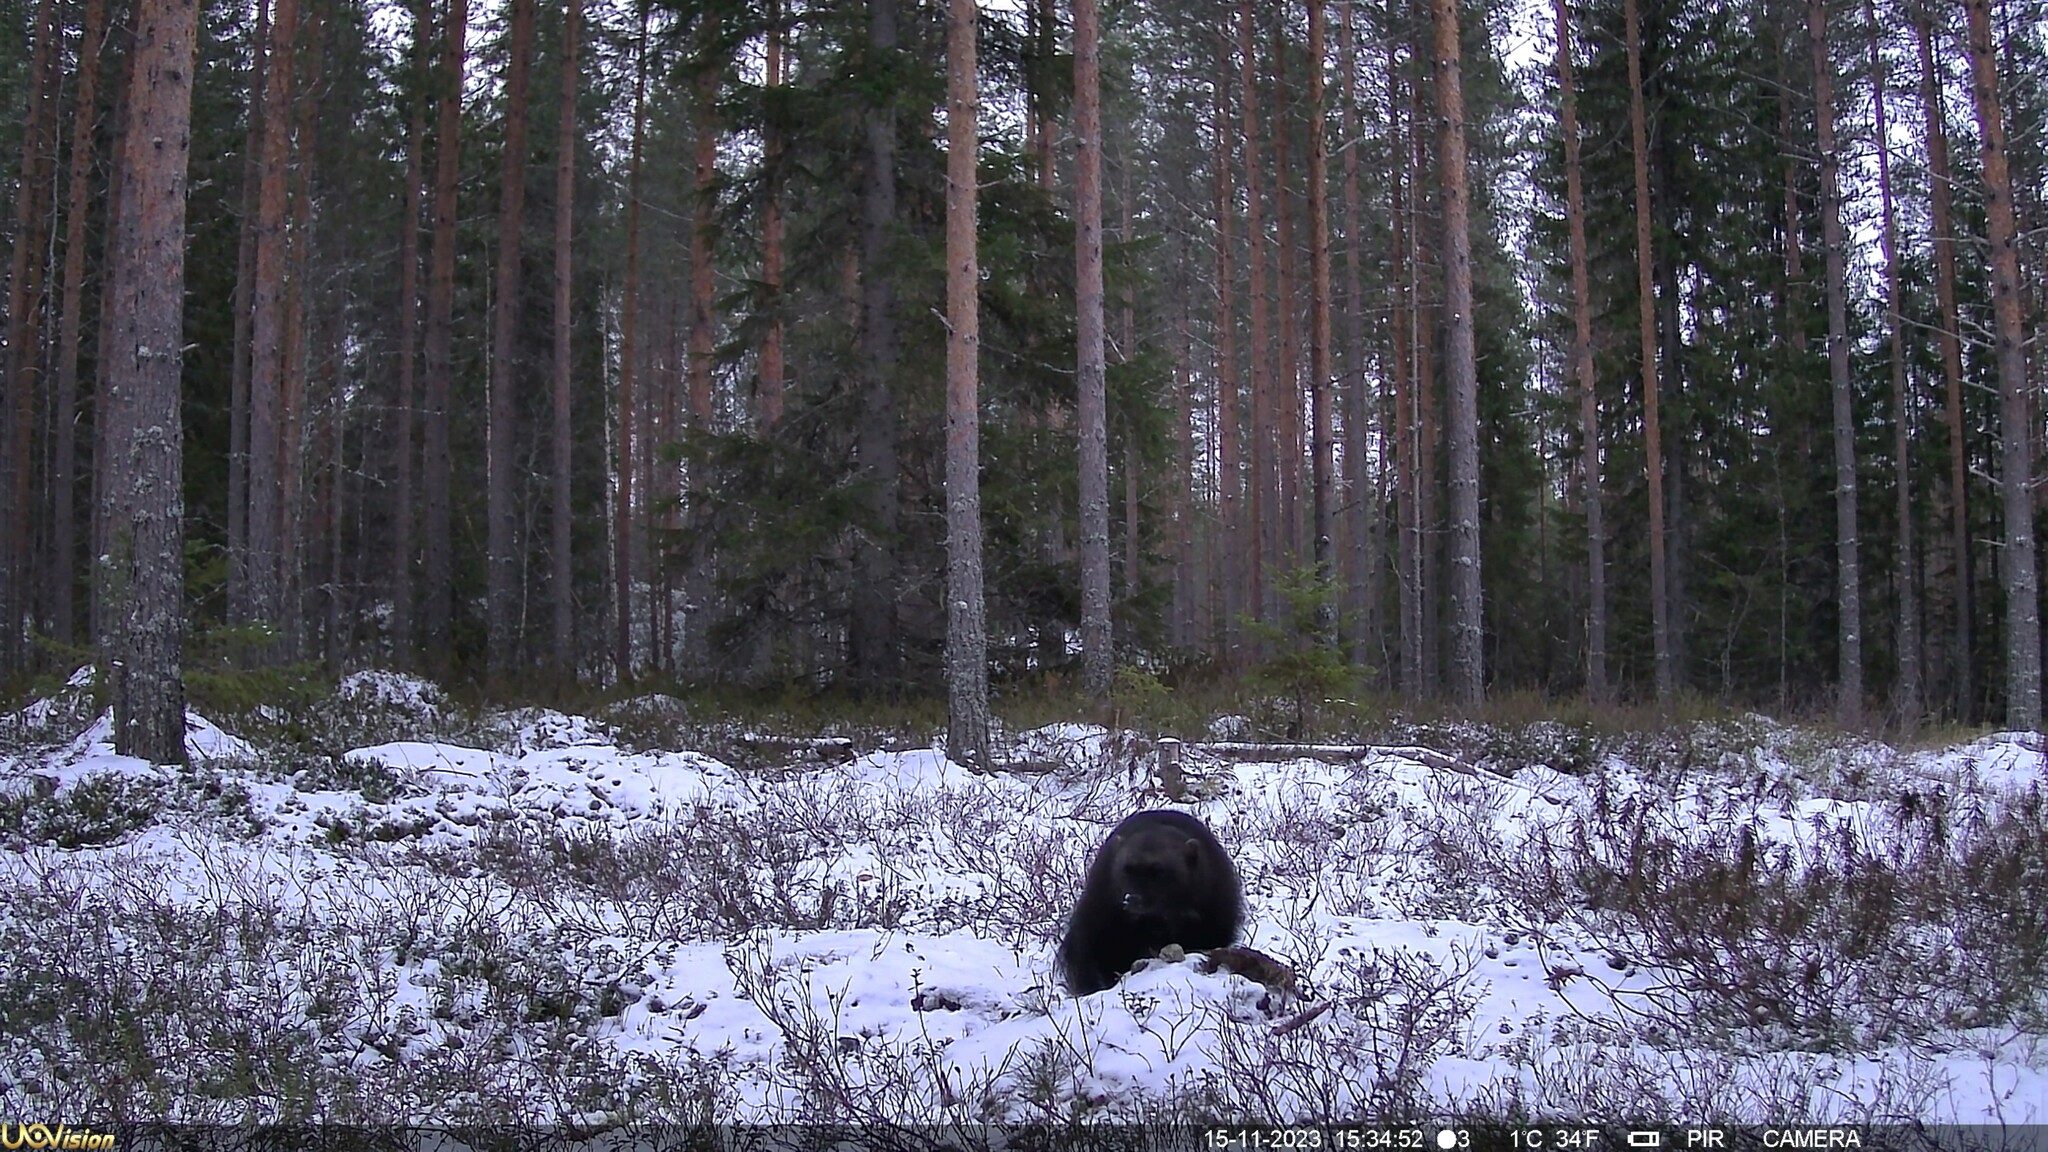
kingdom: Animalia
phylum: Chordata
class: Mammalia
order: Carnivora
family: Mustelidae
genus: Gulo
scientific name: Gulo gulo
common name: Wolverine
